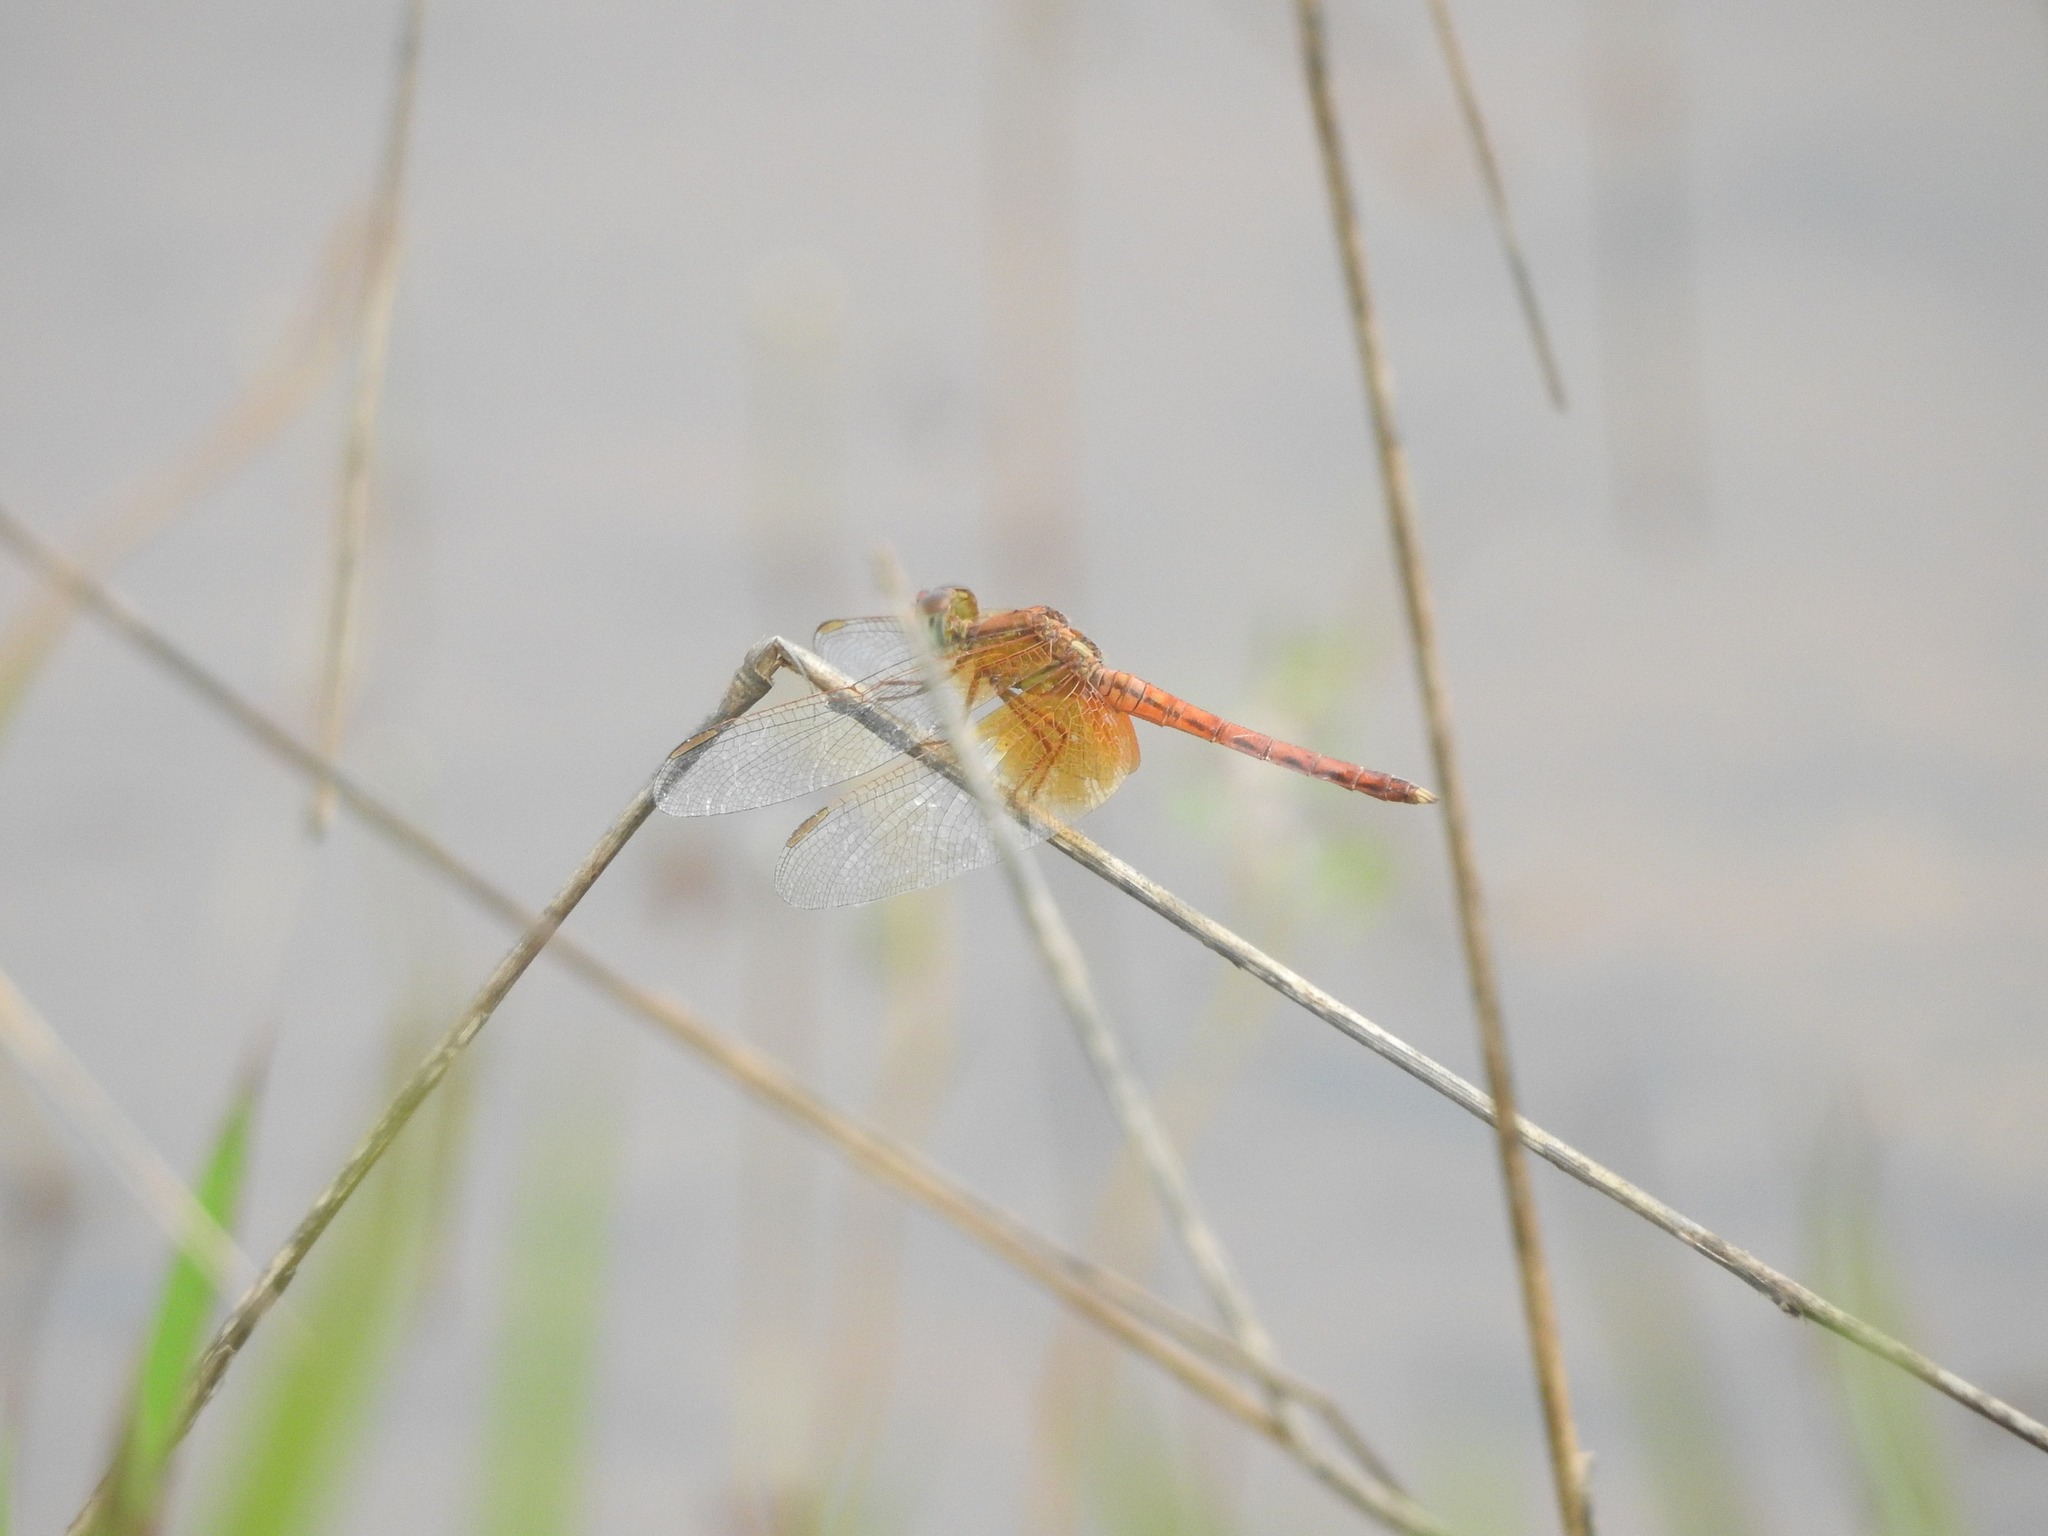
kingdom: Animalia
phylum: Arthropoda
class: Insecta
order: Odonata
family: Libellulidae
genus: Neurothemis
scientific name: Neurothemis intermedia
